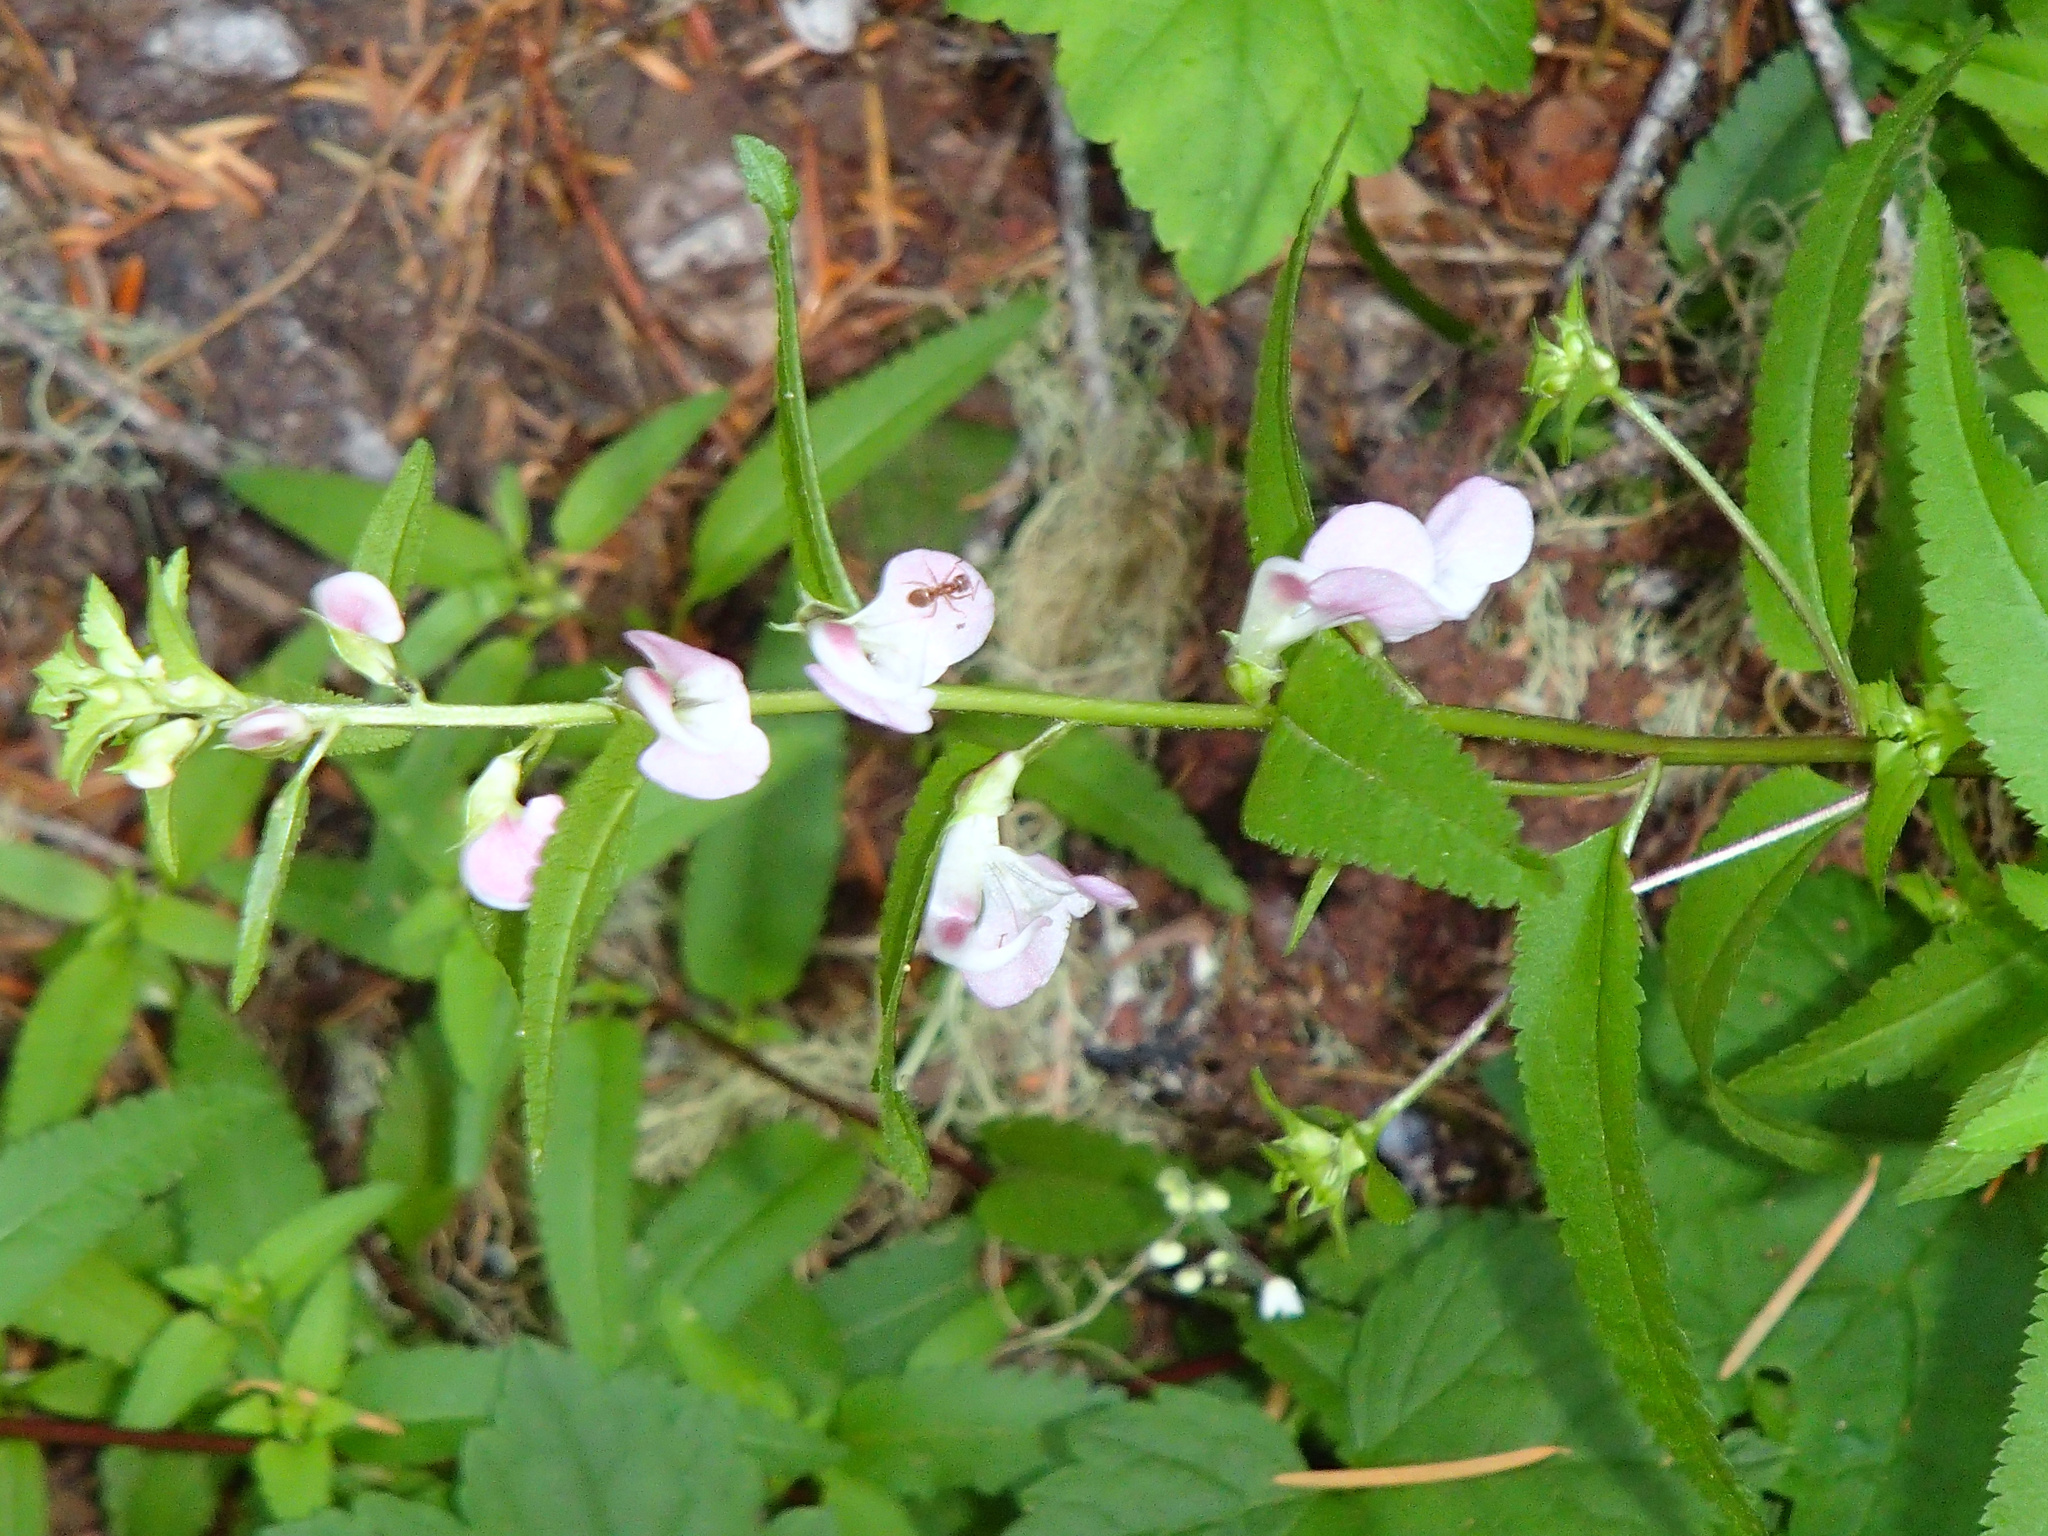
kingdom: Plantae
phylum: Tracheophyta
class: Magnoliopsida
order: Lamiales
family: Orobanchaceae
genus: Pedicularis
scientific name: Pedicularis racemosa
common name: Leafy lousewort
